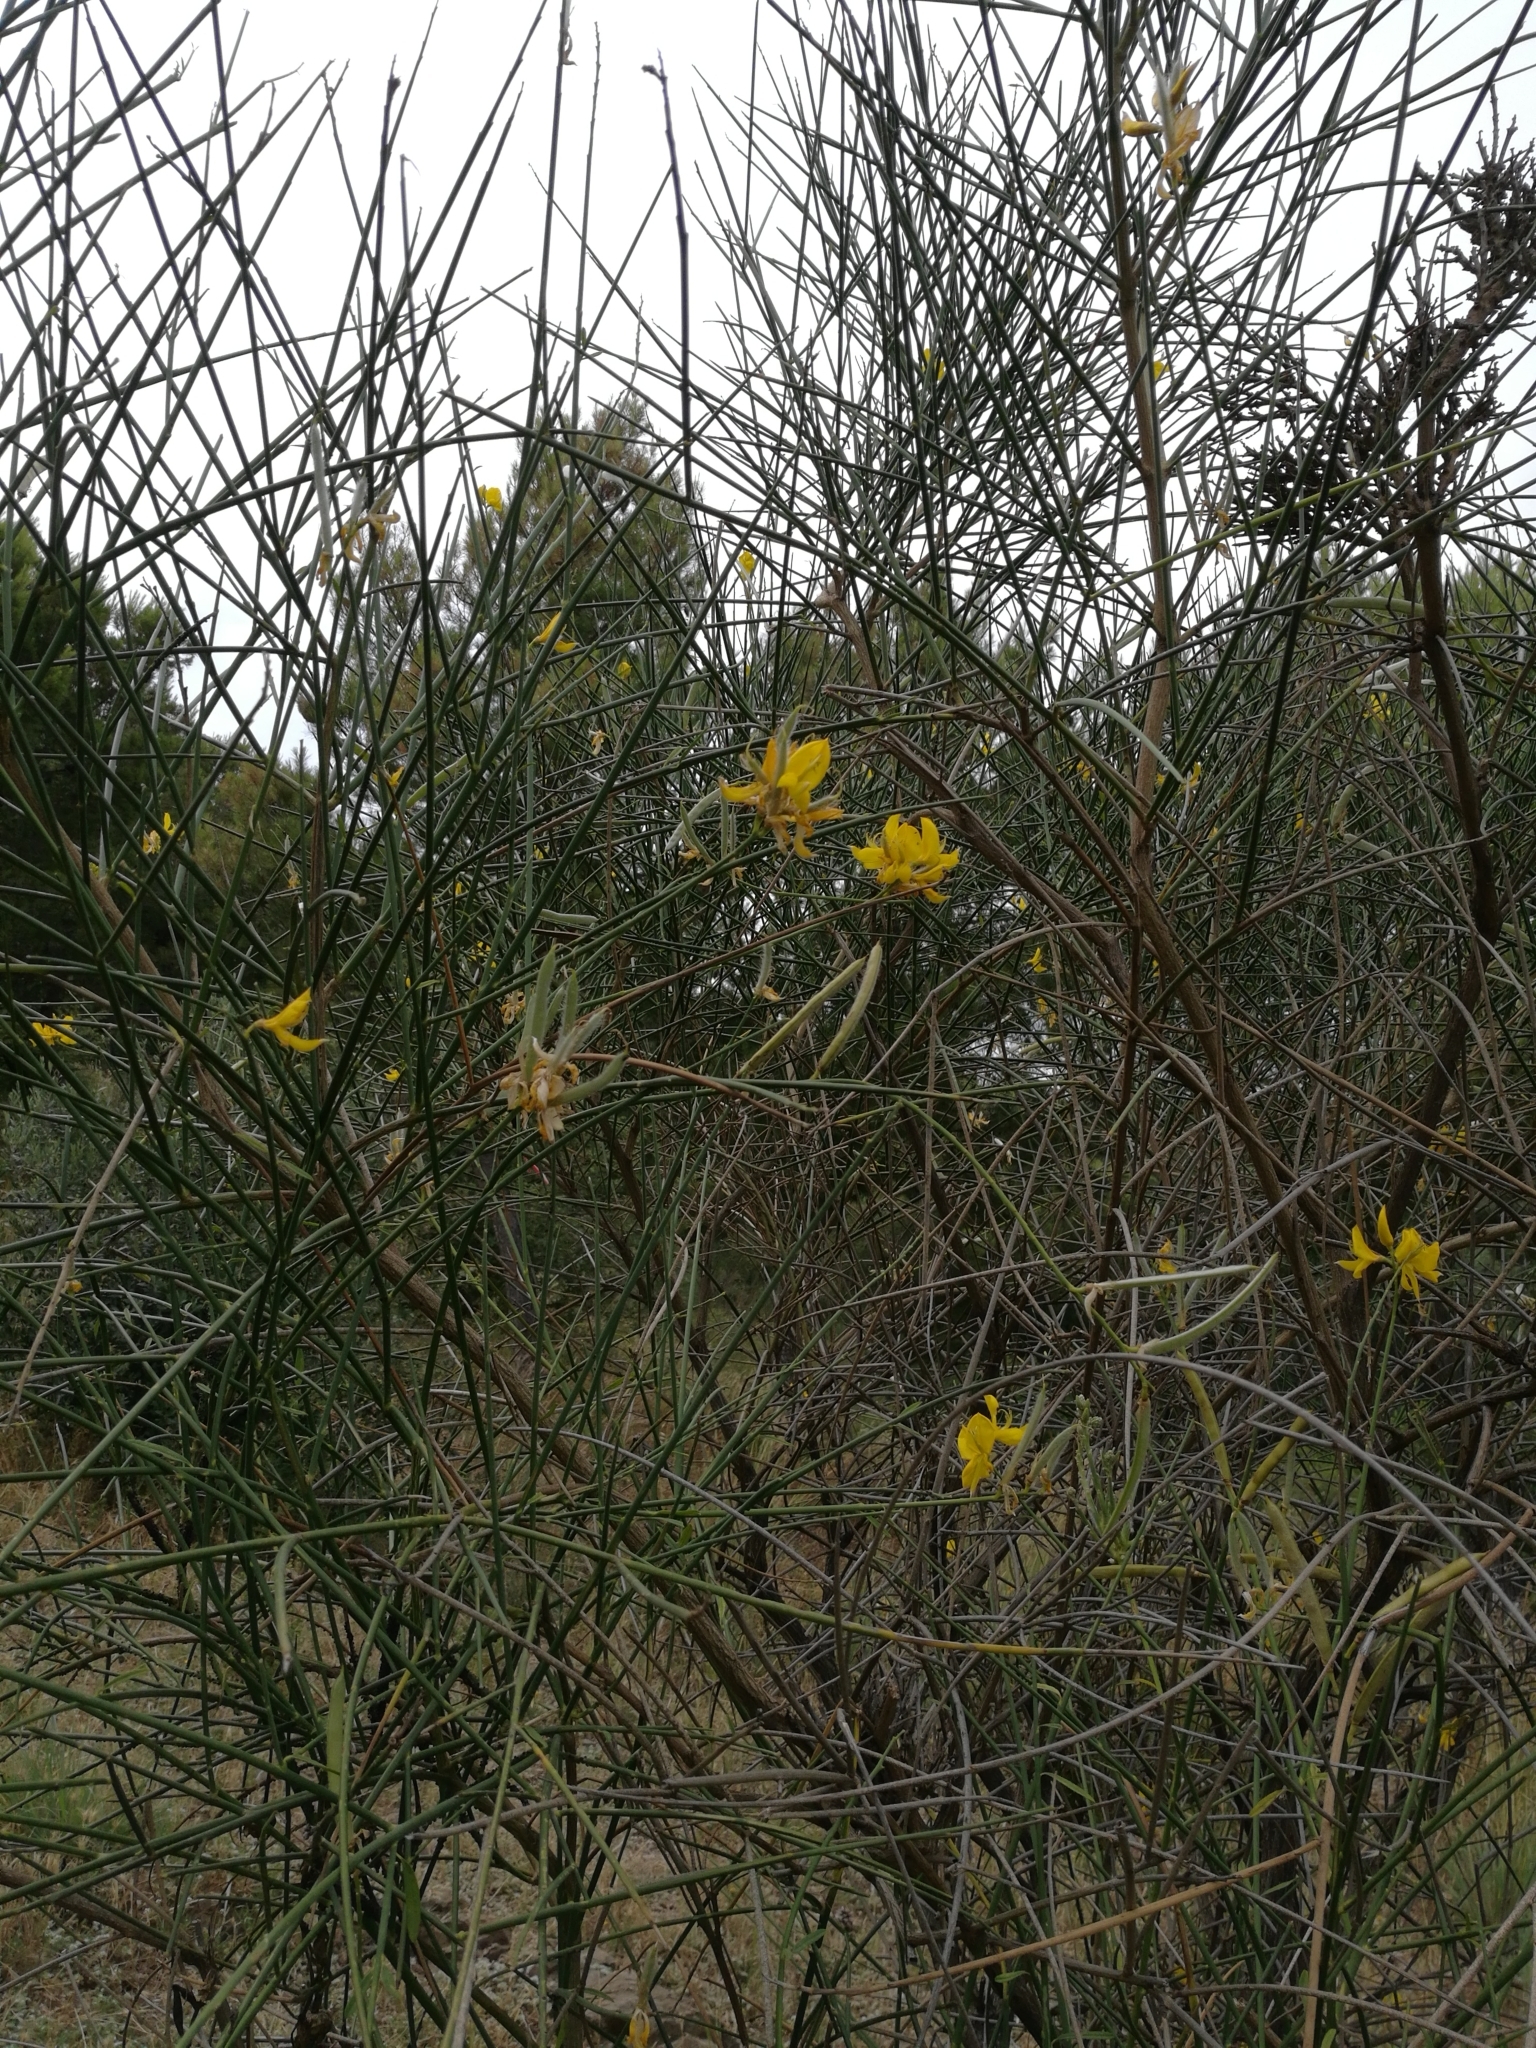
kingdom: Plantae
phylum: Tracheophyta
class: Magnoliopsida
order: Fabales
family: Fabaceae
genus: Spartium
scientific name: Spartium junceum
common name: Spanish broom
